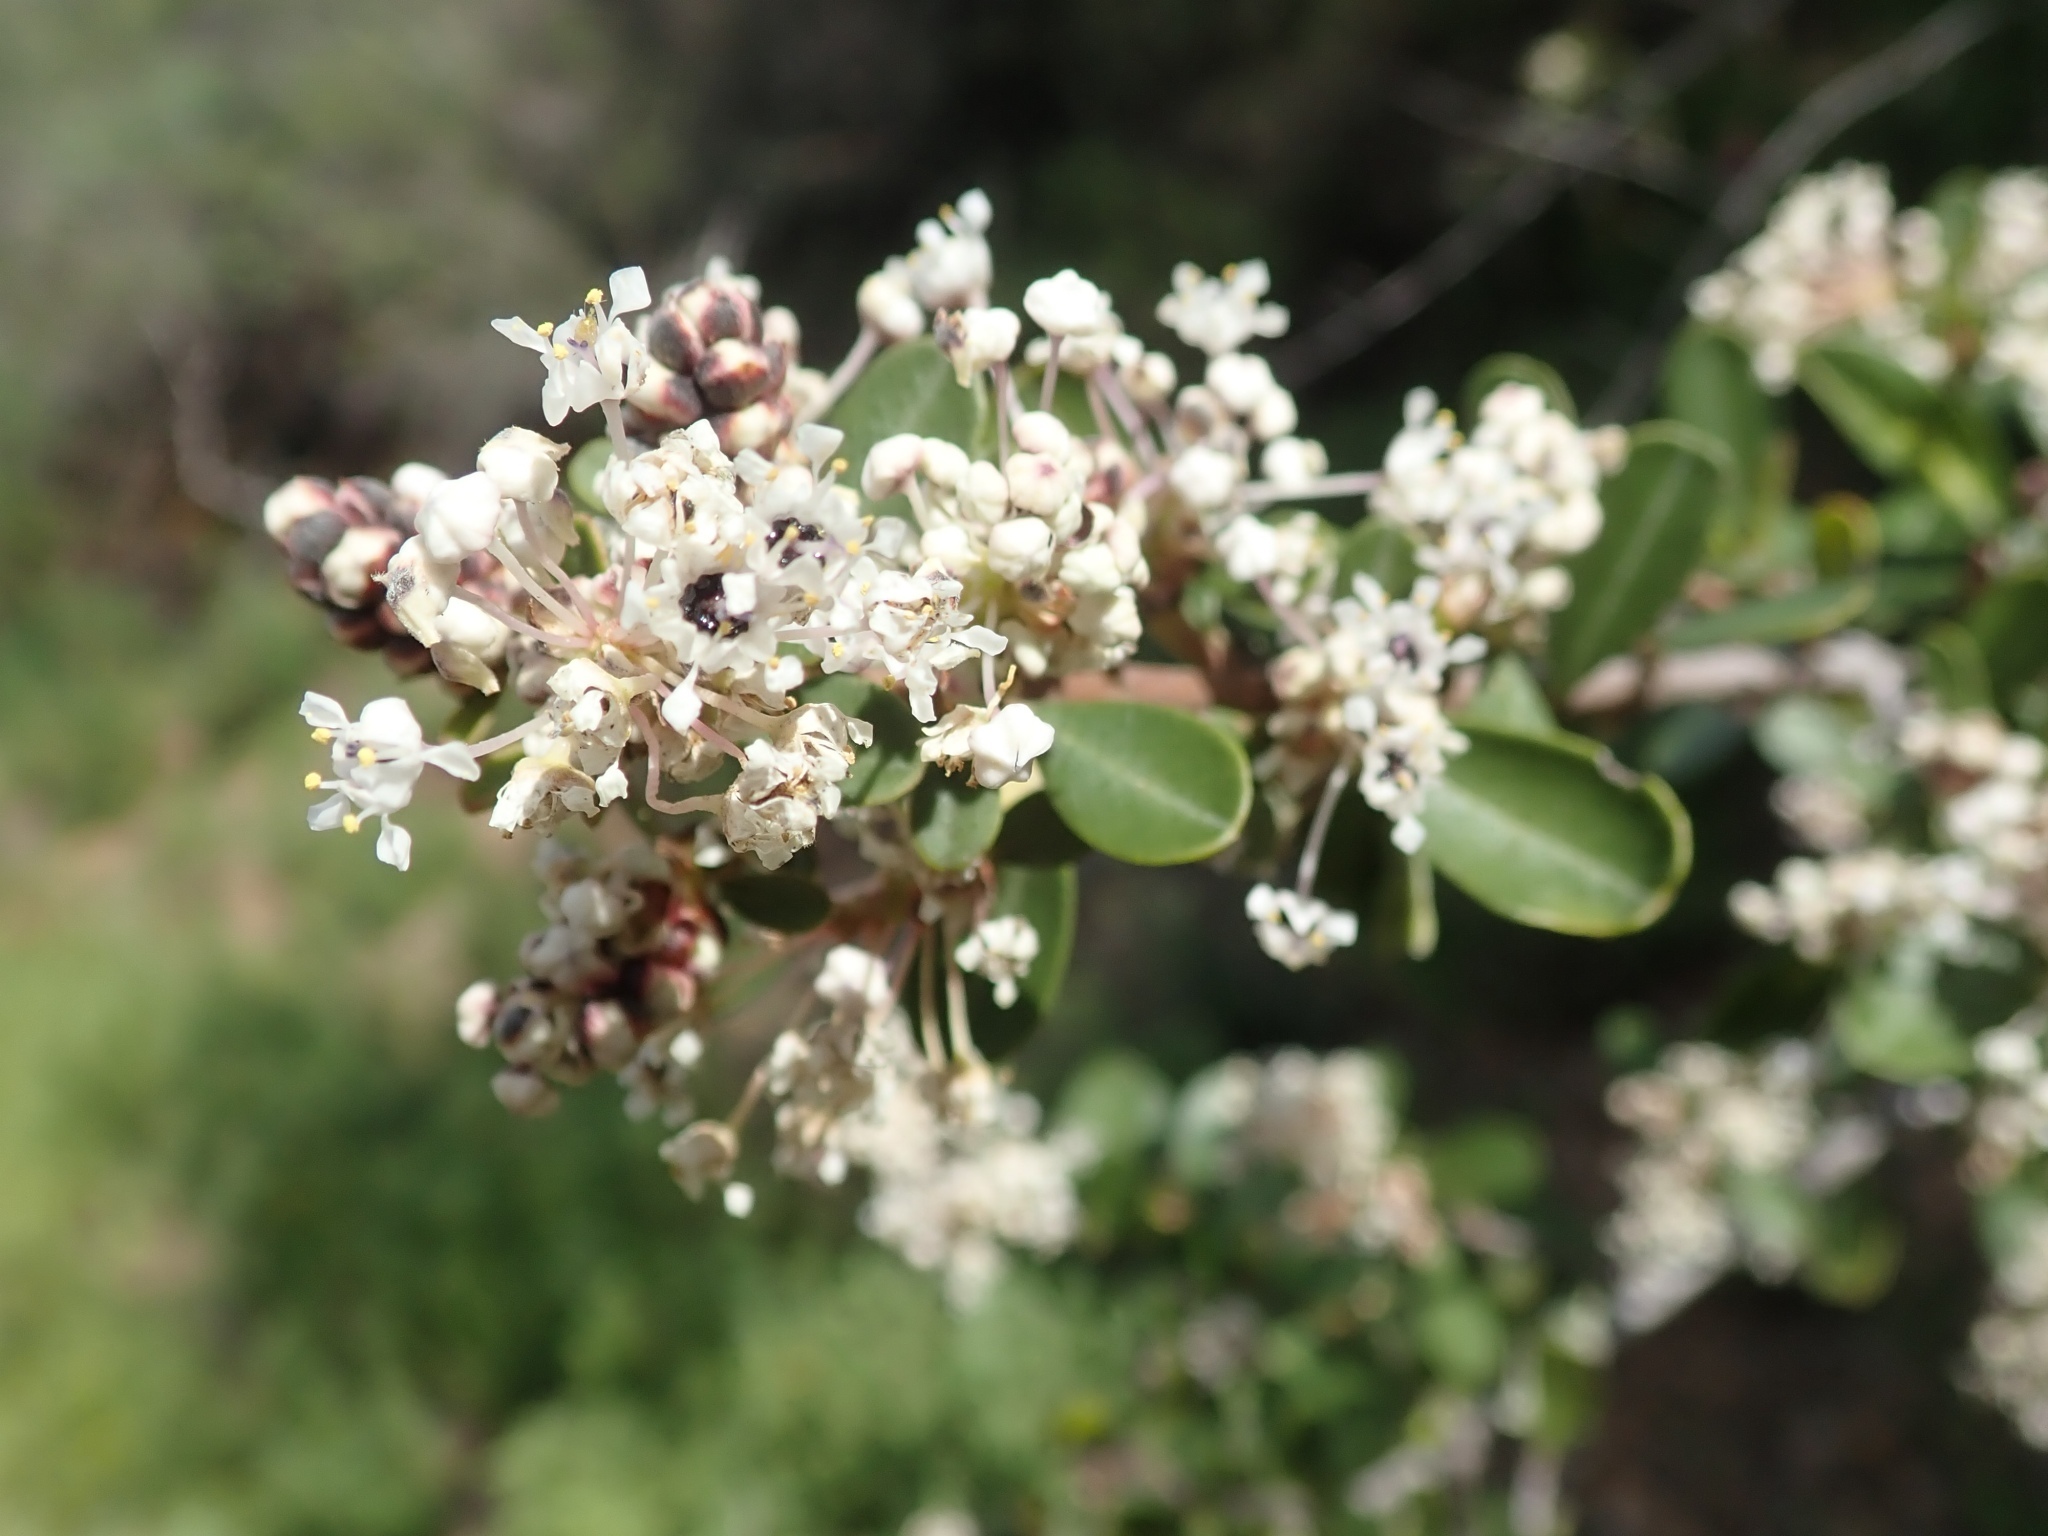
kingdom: Plantae
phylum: Tracheophyta
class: Magnoliopsida
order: Rosales
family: Rhamnaceae
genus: Ceanothus
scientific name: Ceanothus cuneatus
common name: Cuneate ceanothus
